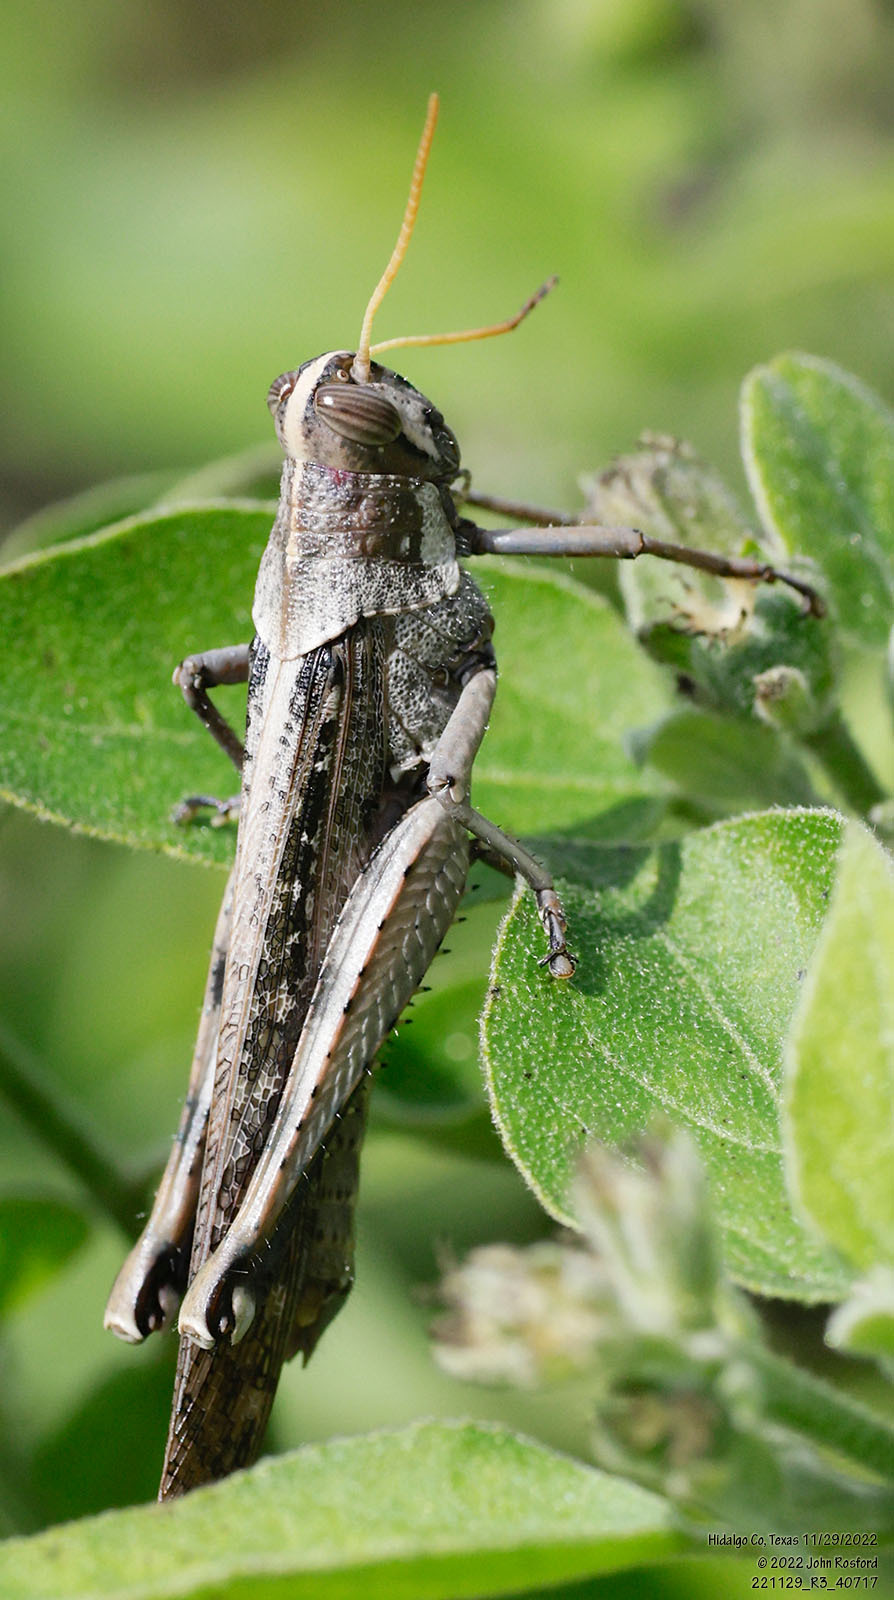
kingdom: Animalia
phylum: Arthropoda
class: Insecta
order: Orthoptera
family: Acrididae
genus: Schistocerca
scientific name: Schistocerca nitens
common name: Vagrant grasshopper
